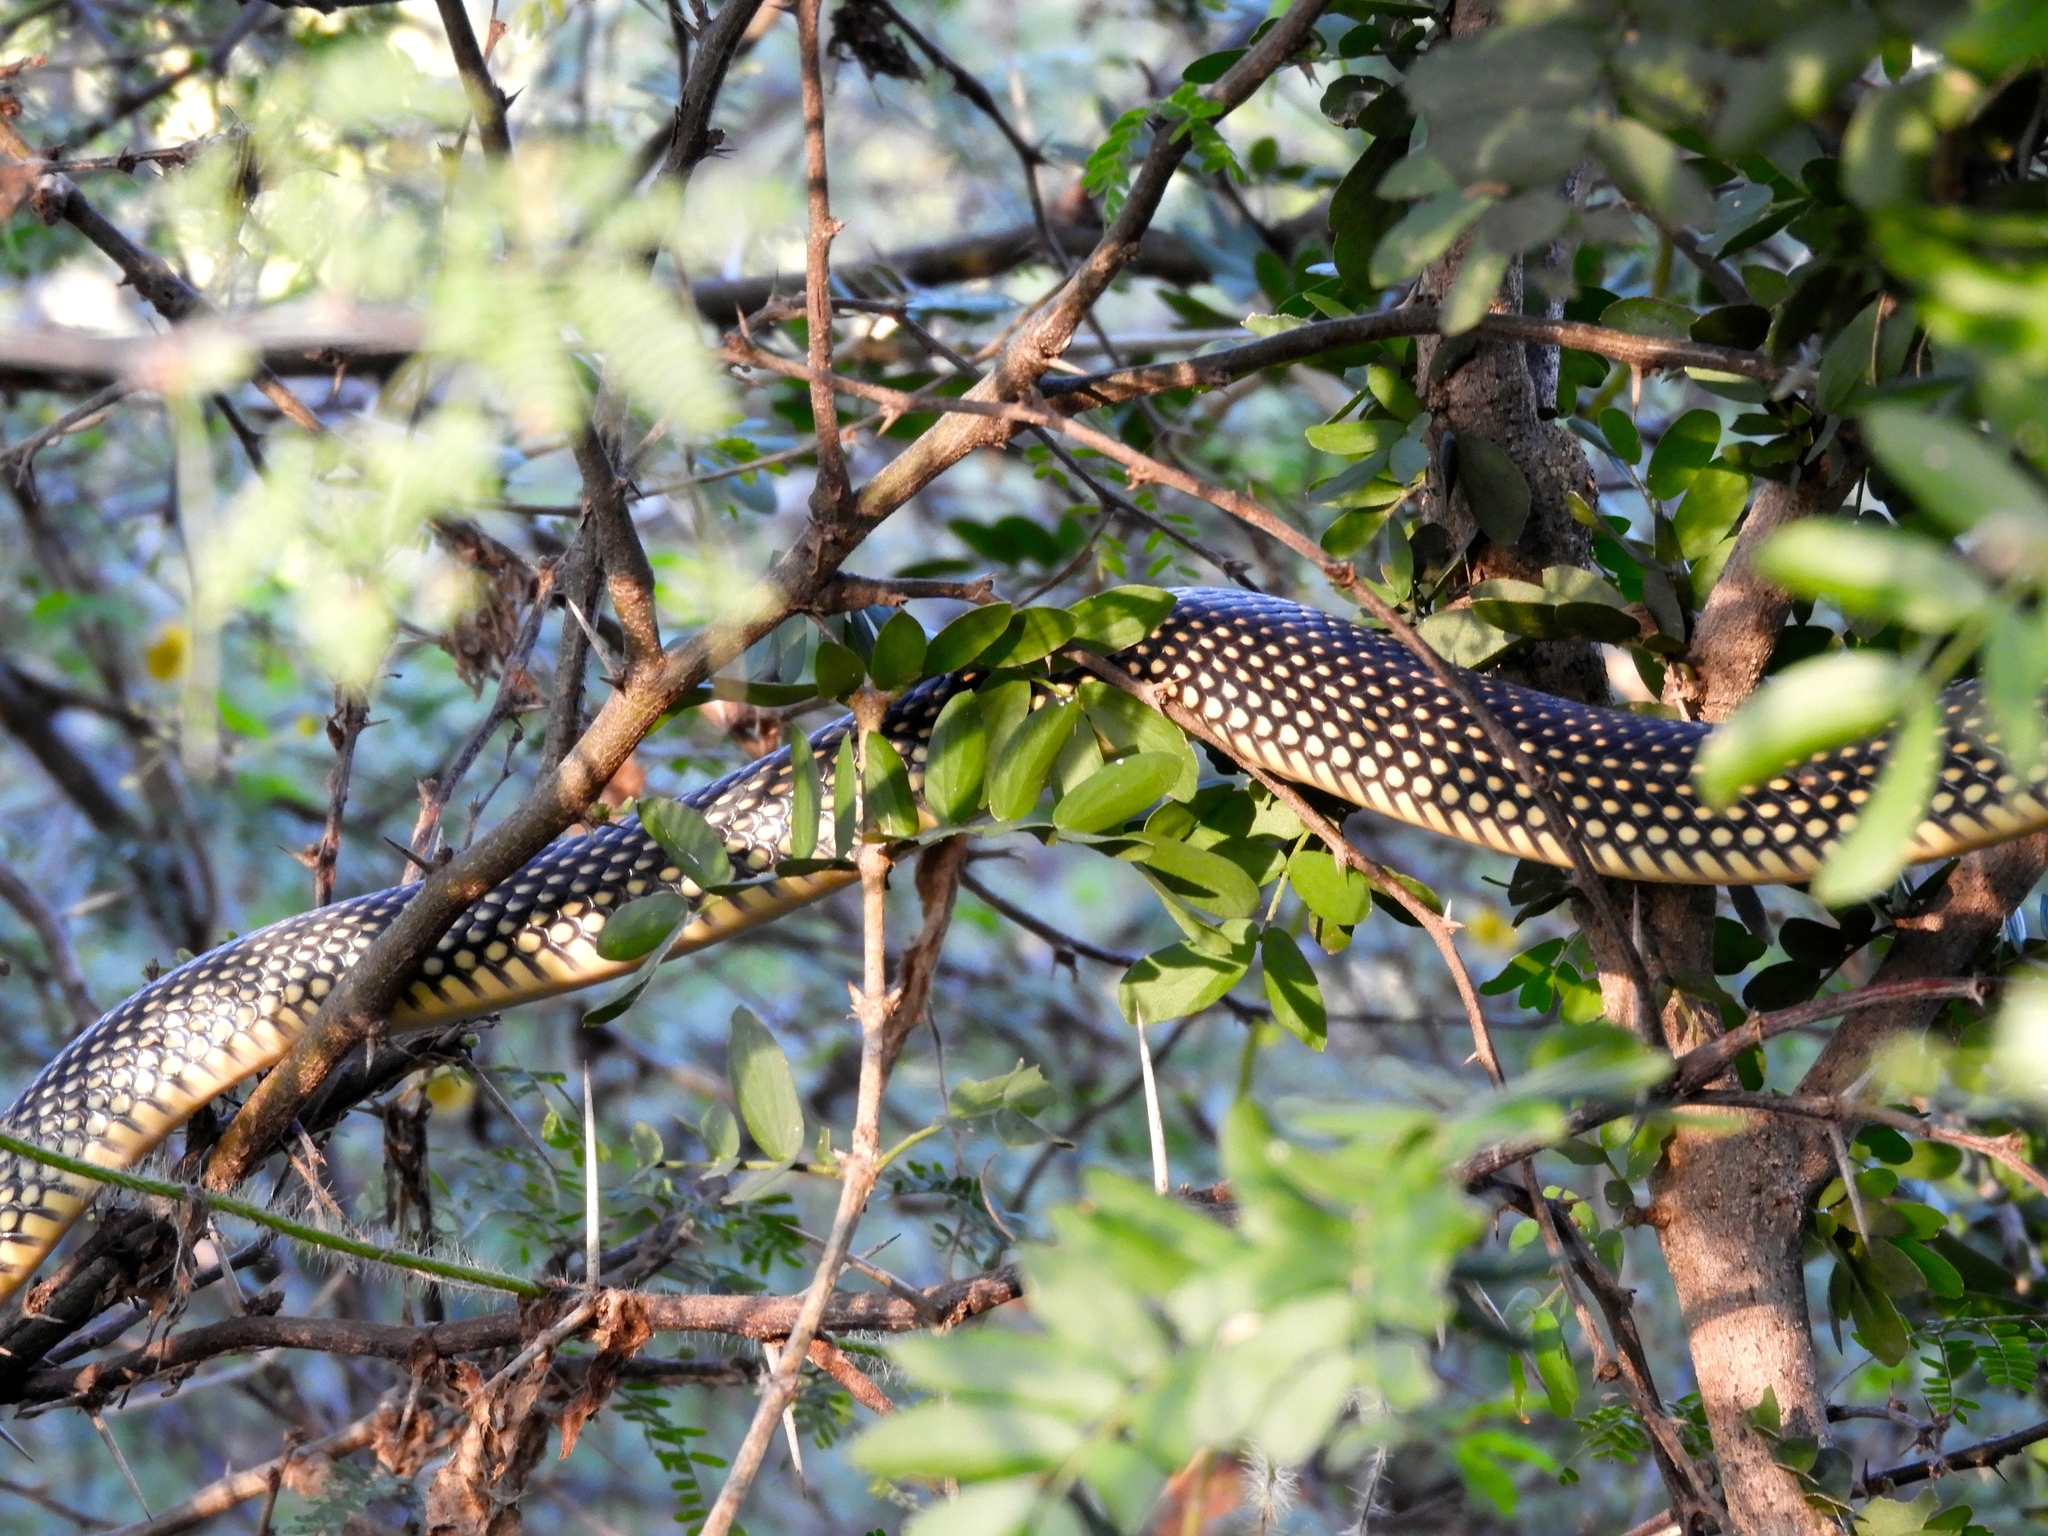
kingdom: Animalia
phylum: Chordata
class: Squamata
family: Colubridae
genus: Drymobius
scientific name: Drymobius margaritiferus
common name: Central american speckled racer
